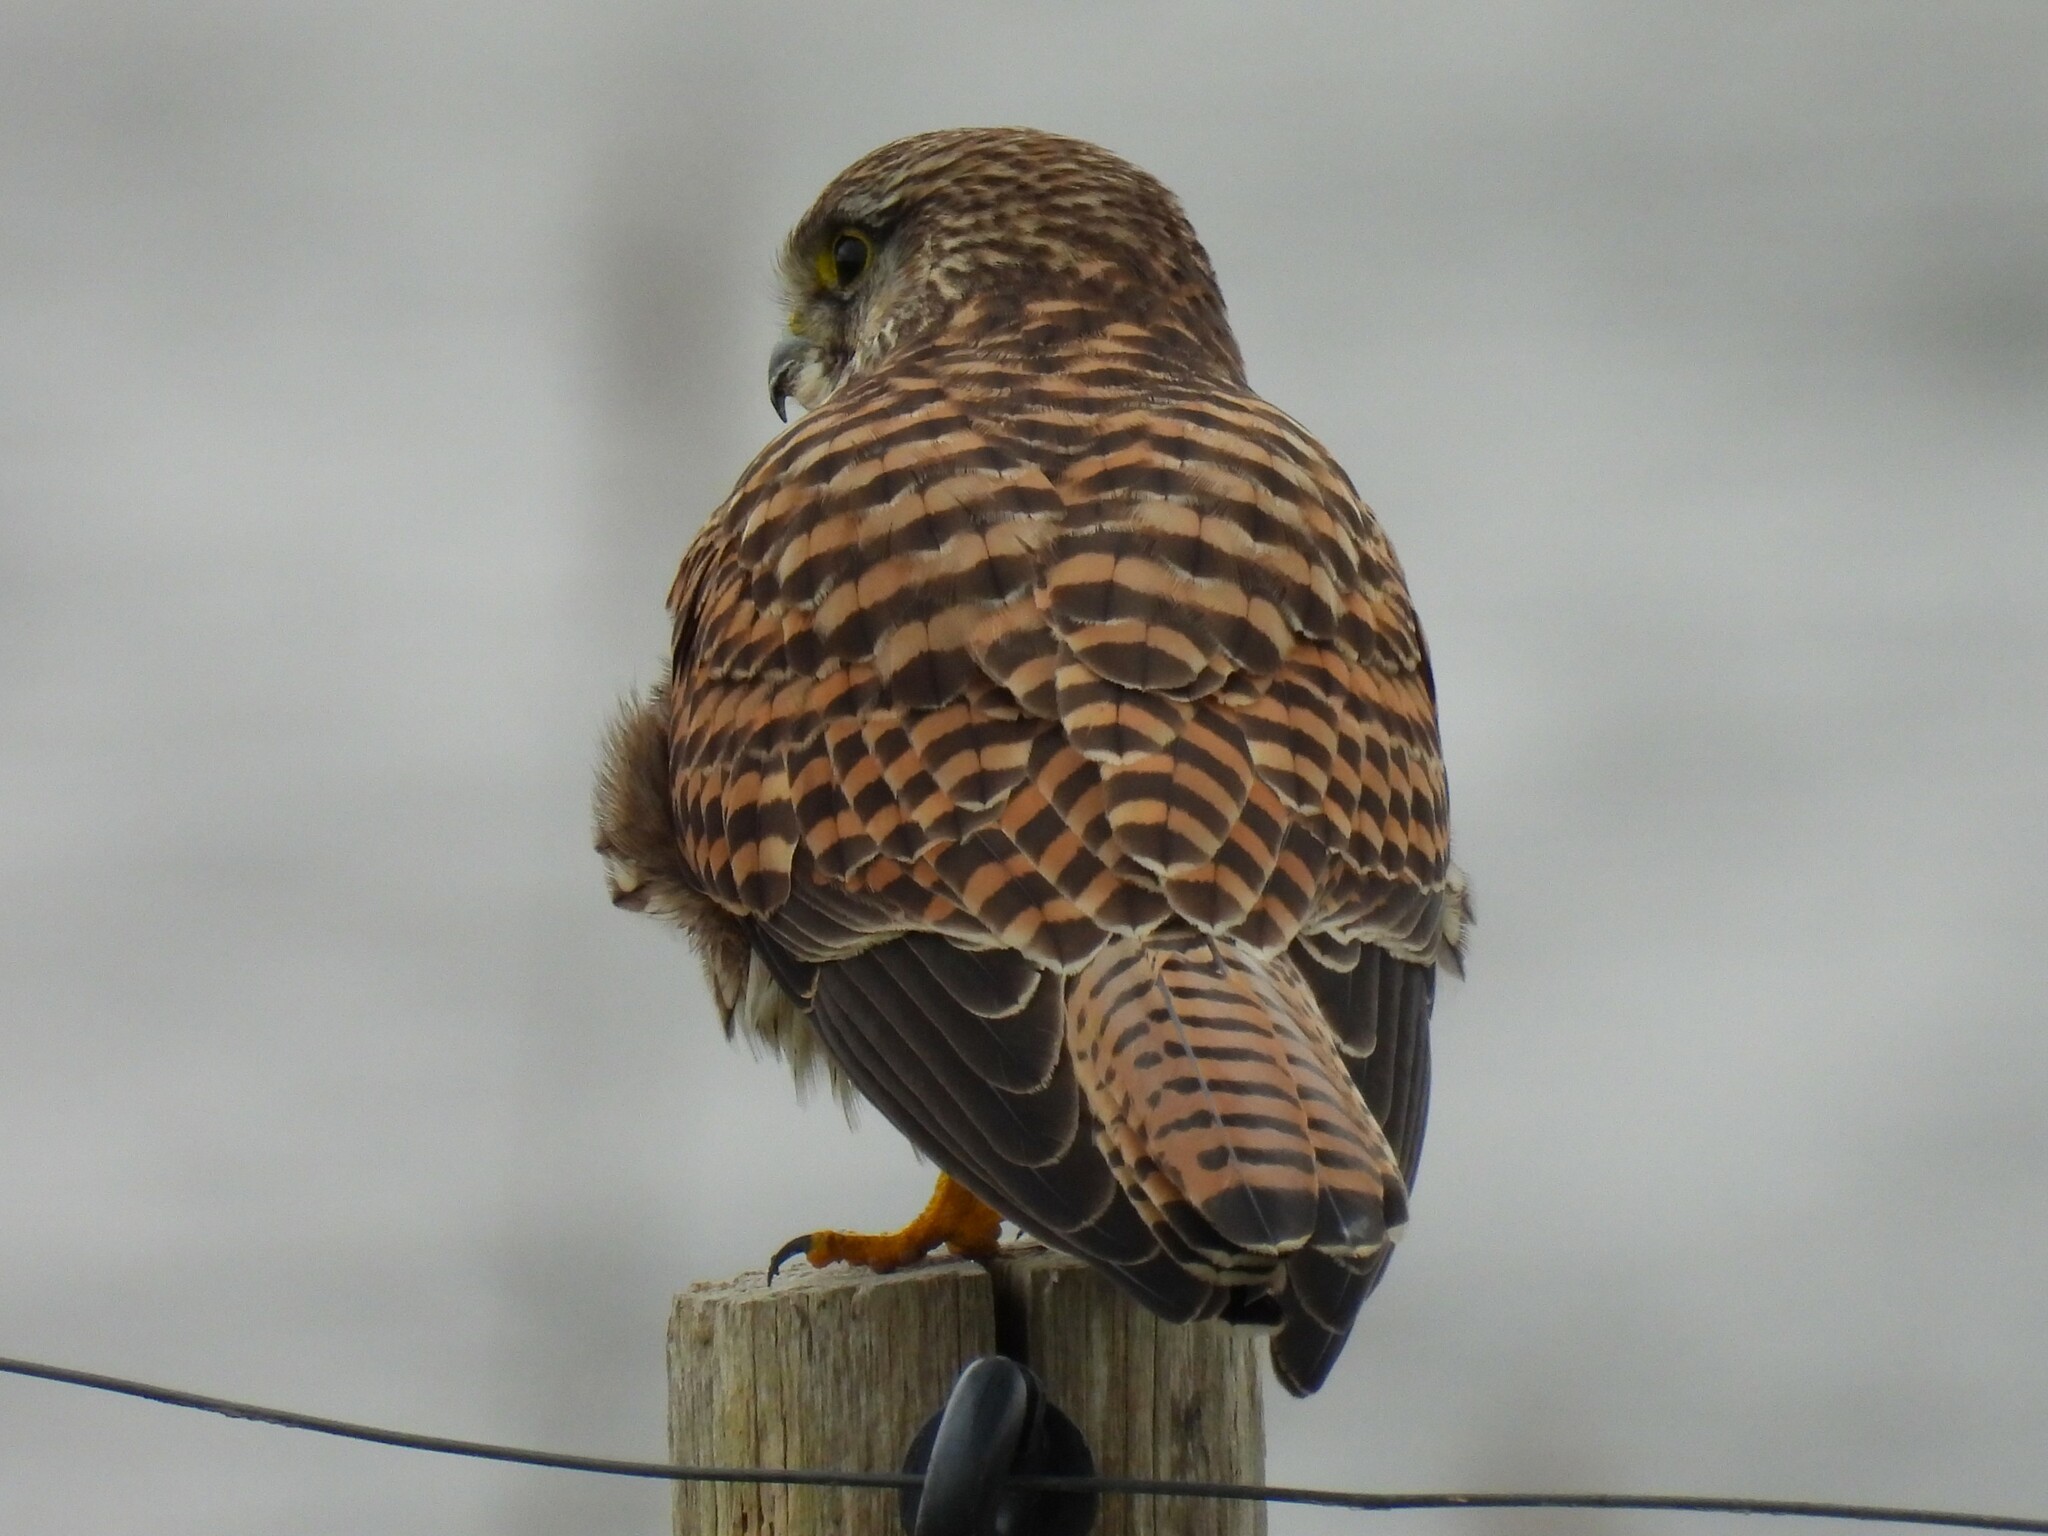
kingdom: Animalia
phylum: Chordata
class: Aves
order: Falconiformes
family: Falconidae
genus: Falco
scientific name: Falco tinnunculus
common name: Common kestrel
